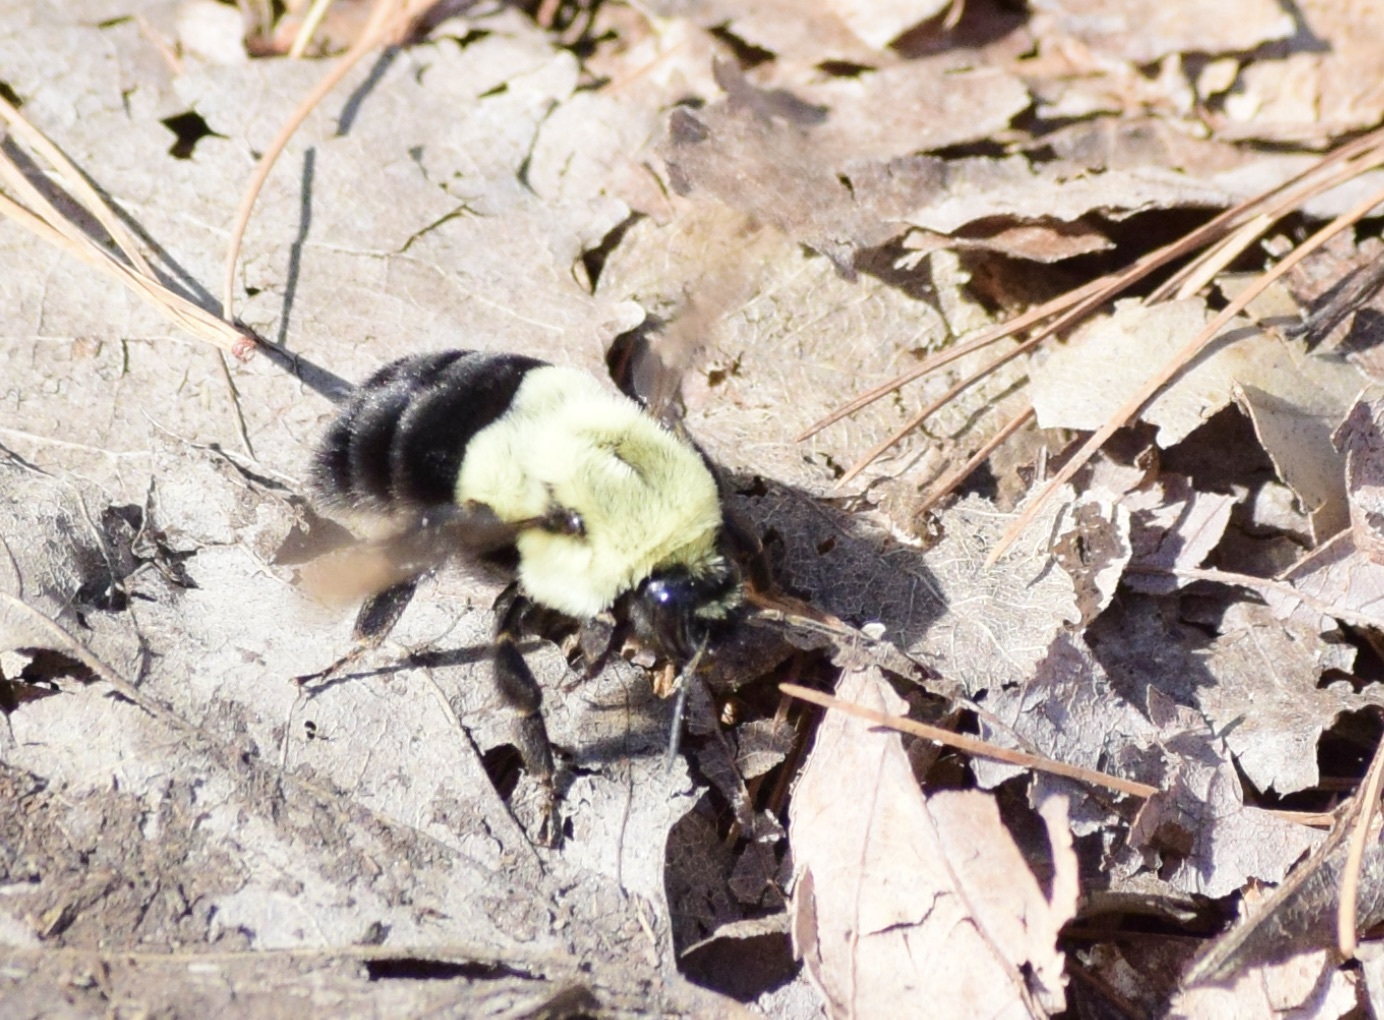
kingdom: Animalia
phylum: Arthropoda
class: Insecta
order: Hymenoptera
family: Apidae
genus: Bombus
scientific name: Bombus impatiens
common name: Common eastern bumble bee
